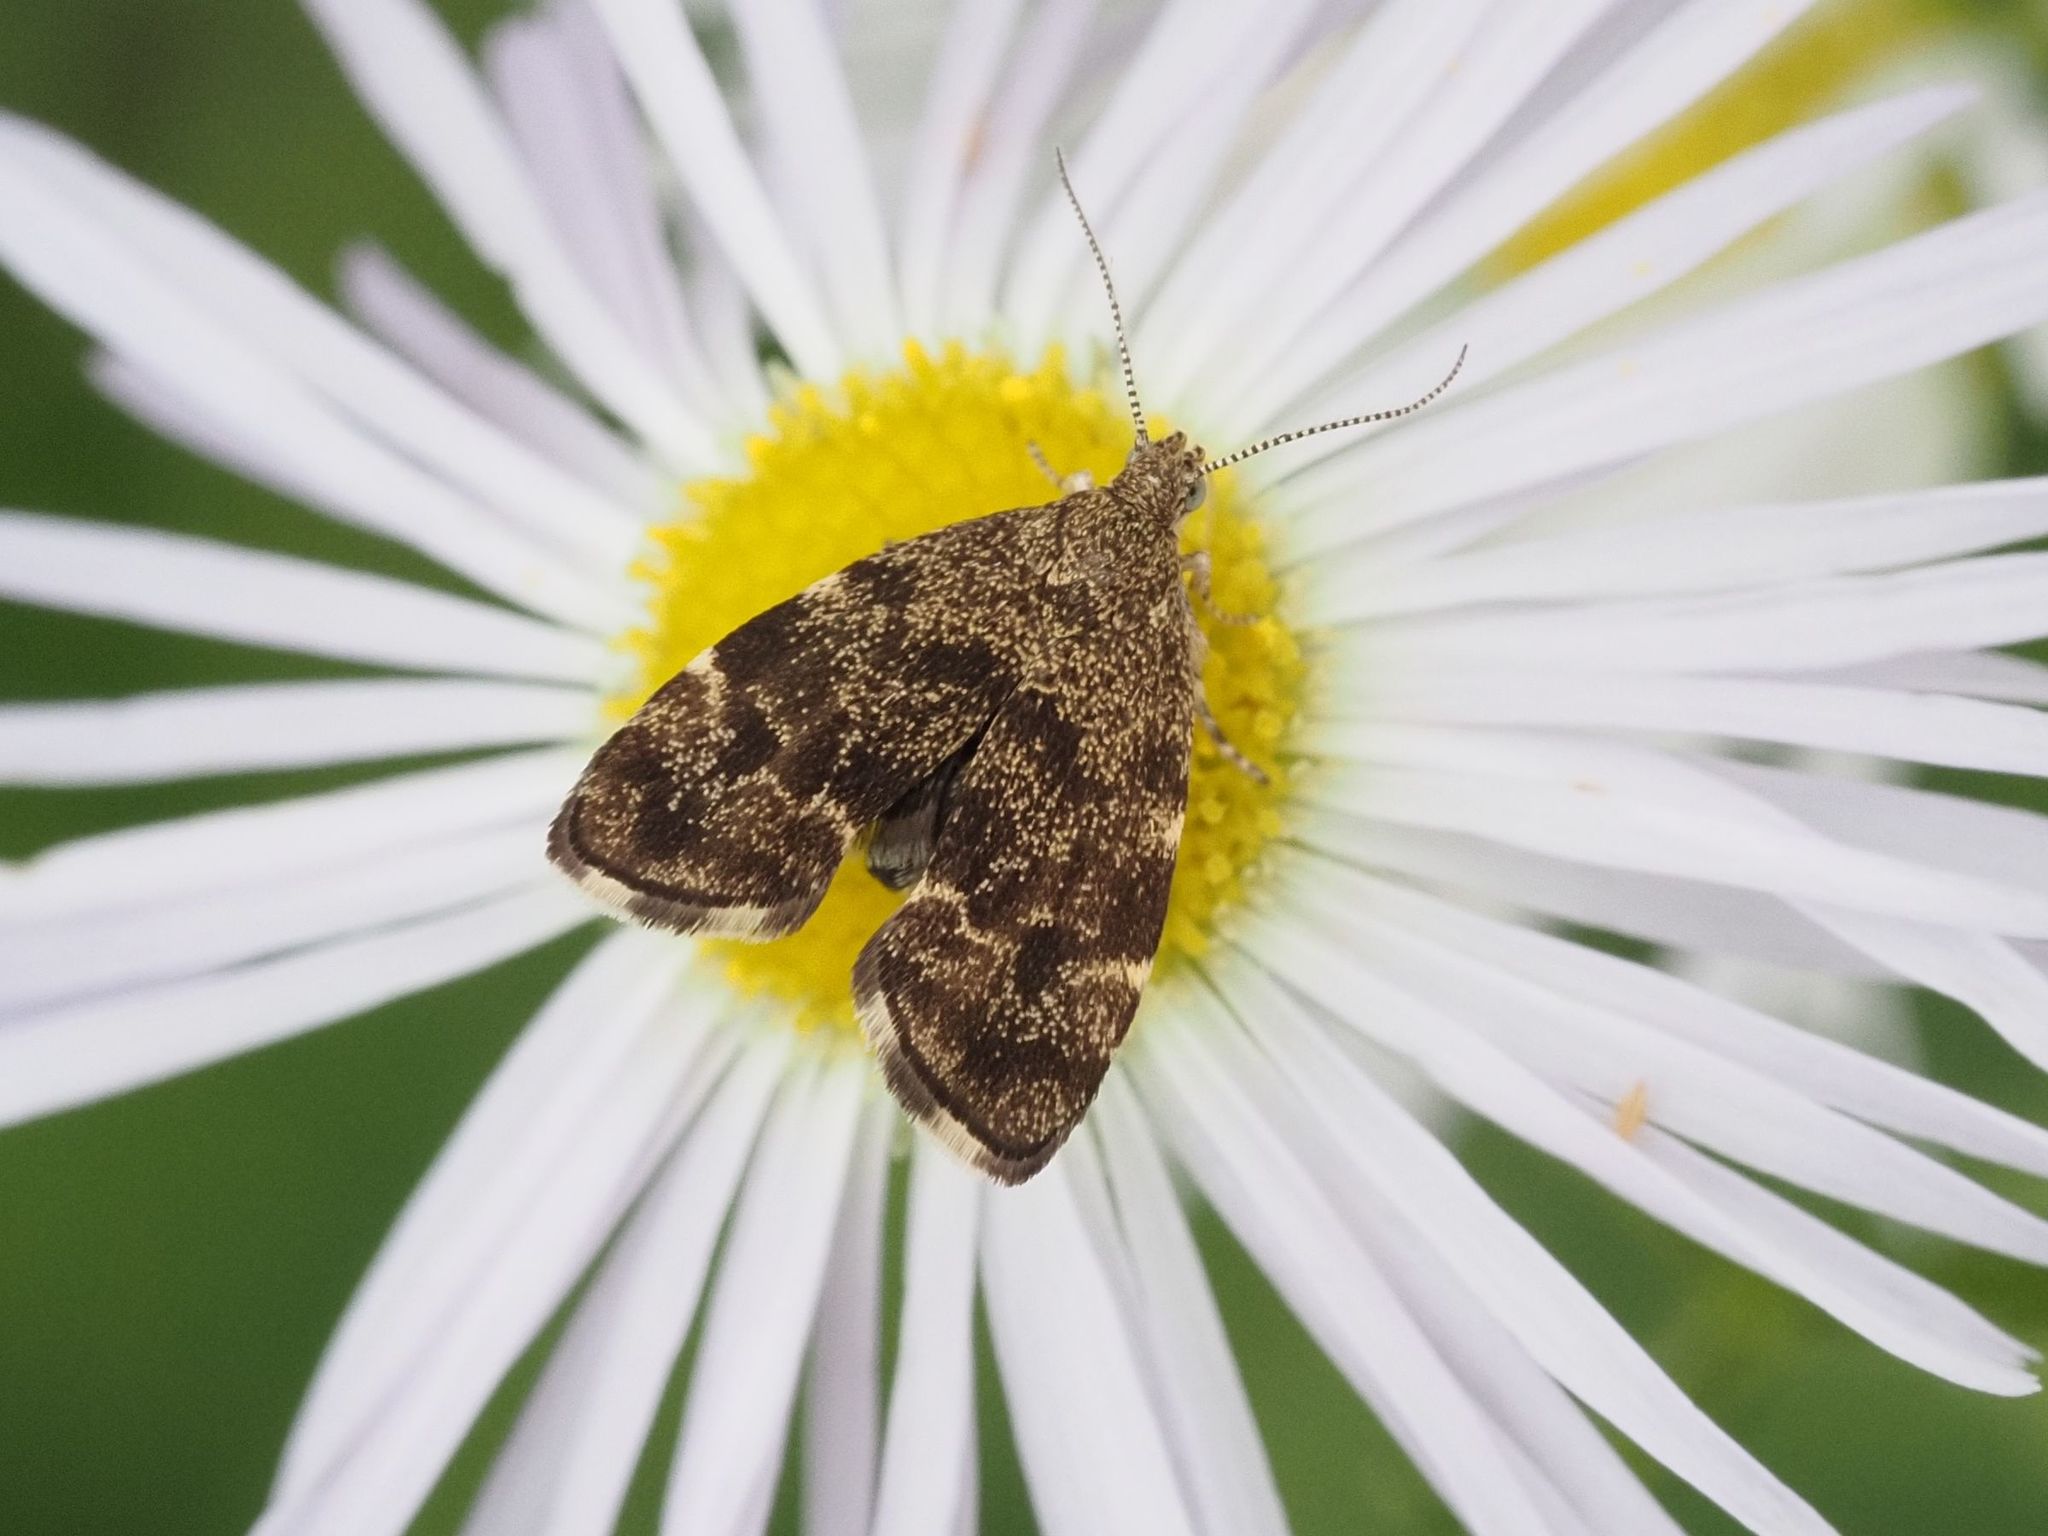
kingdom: Animalia
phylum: Arthropoda
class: Insecta
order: Lepidoptera
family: Choreutidae
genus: Anthophila
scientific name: Anthophila fabriciana
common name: Nettle-tap
